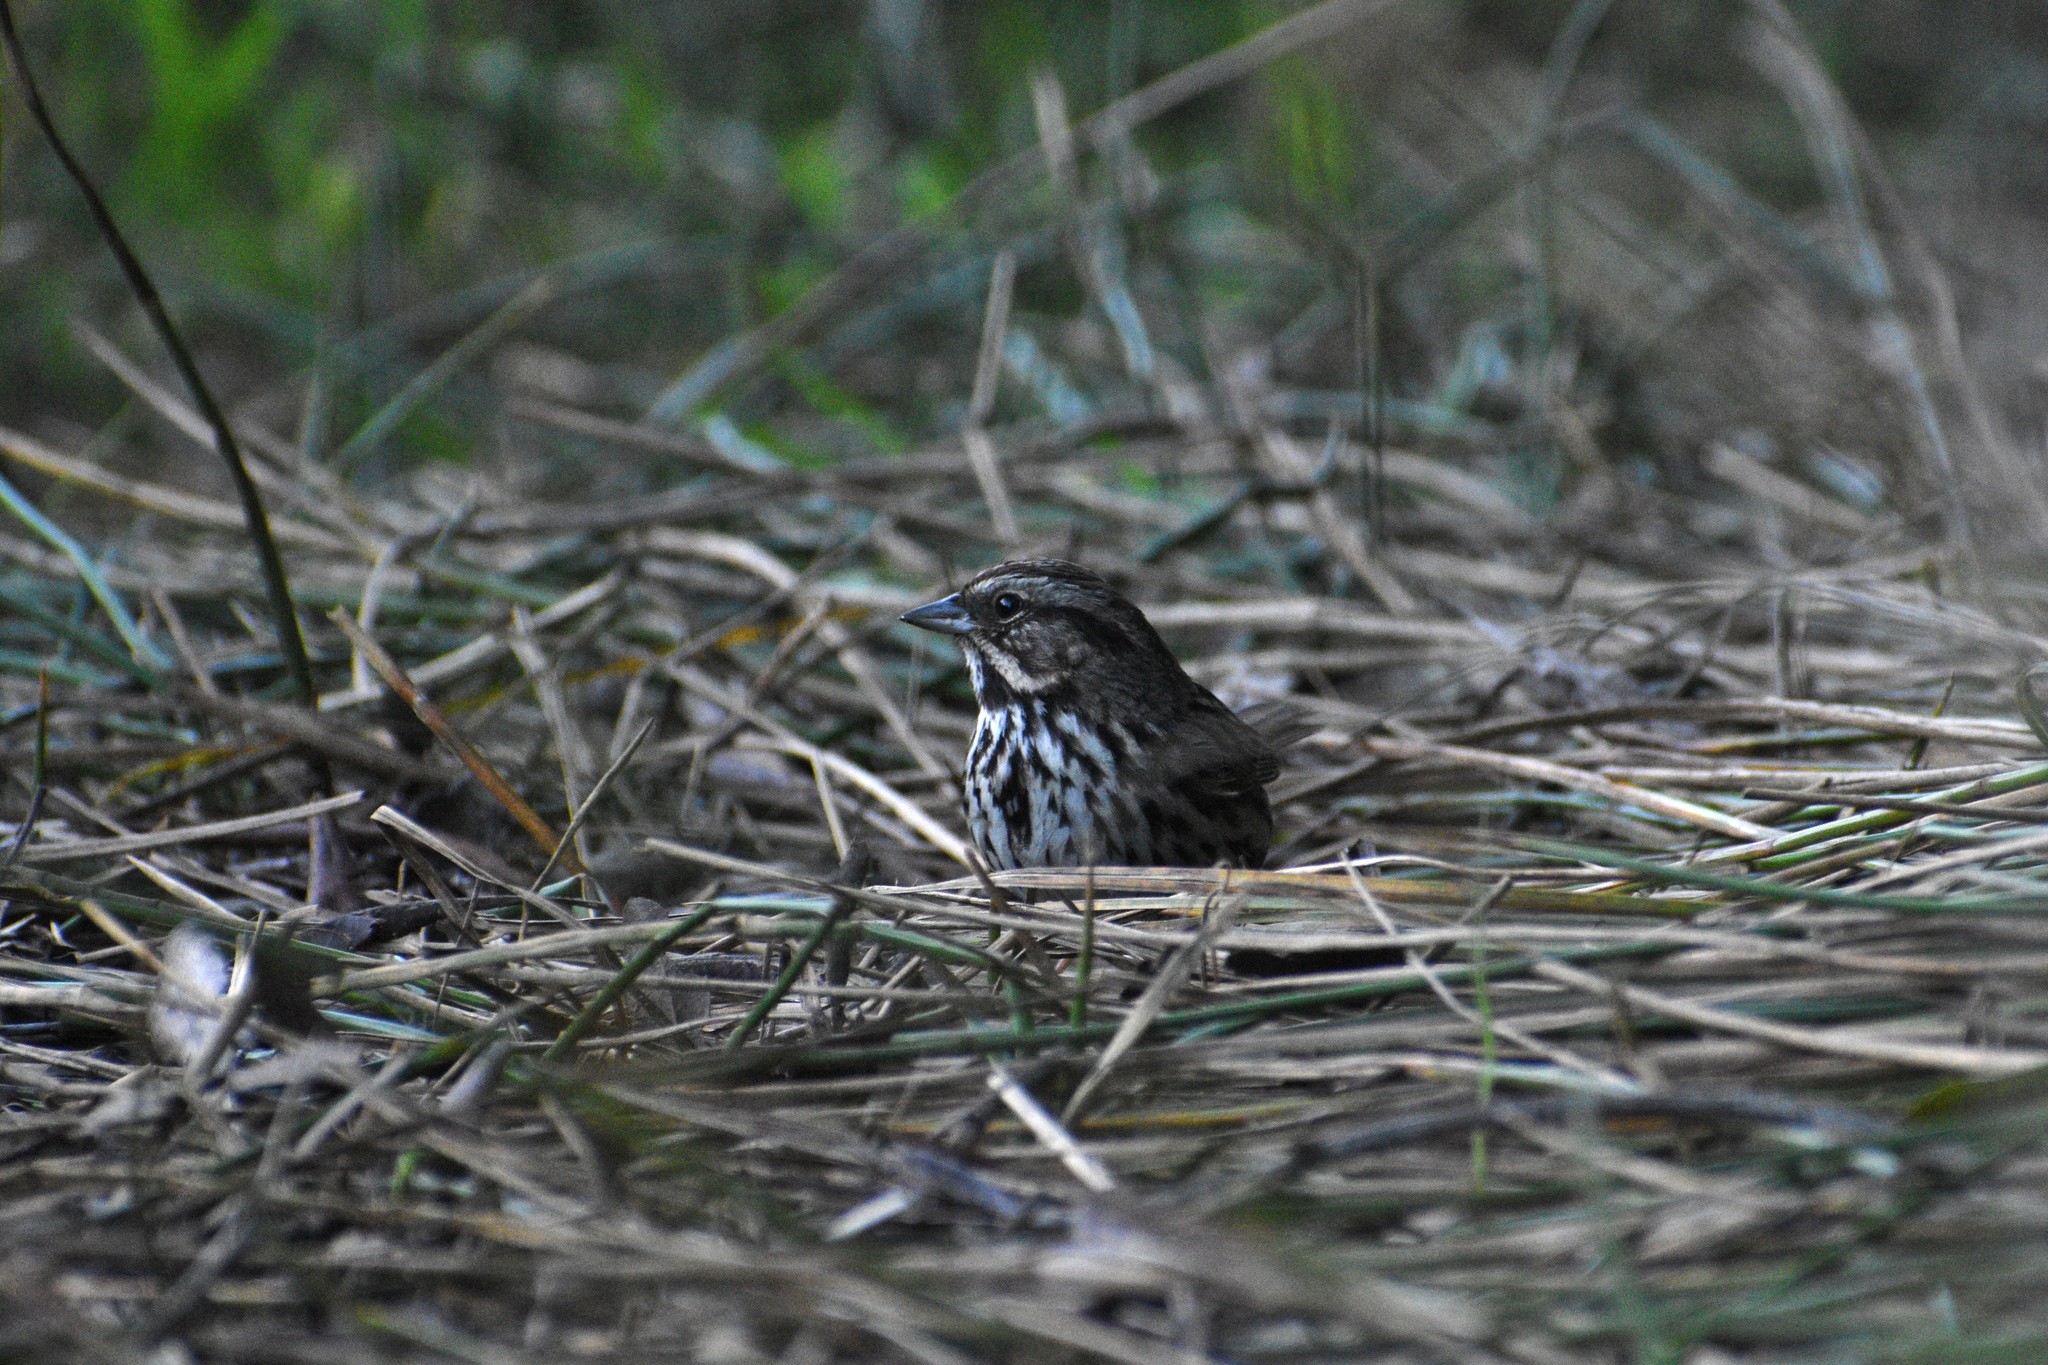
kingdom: Animalia
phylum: Chordata
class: Aves
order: Passeriformes
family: Passerellidae
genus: Melospiza
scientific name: Melospiza melodia
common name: Song sparrow
